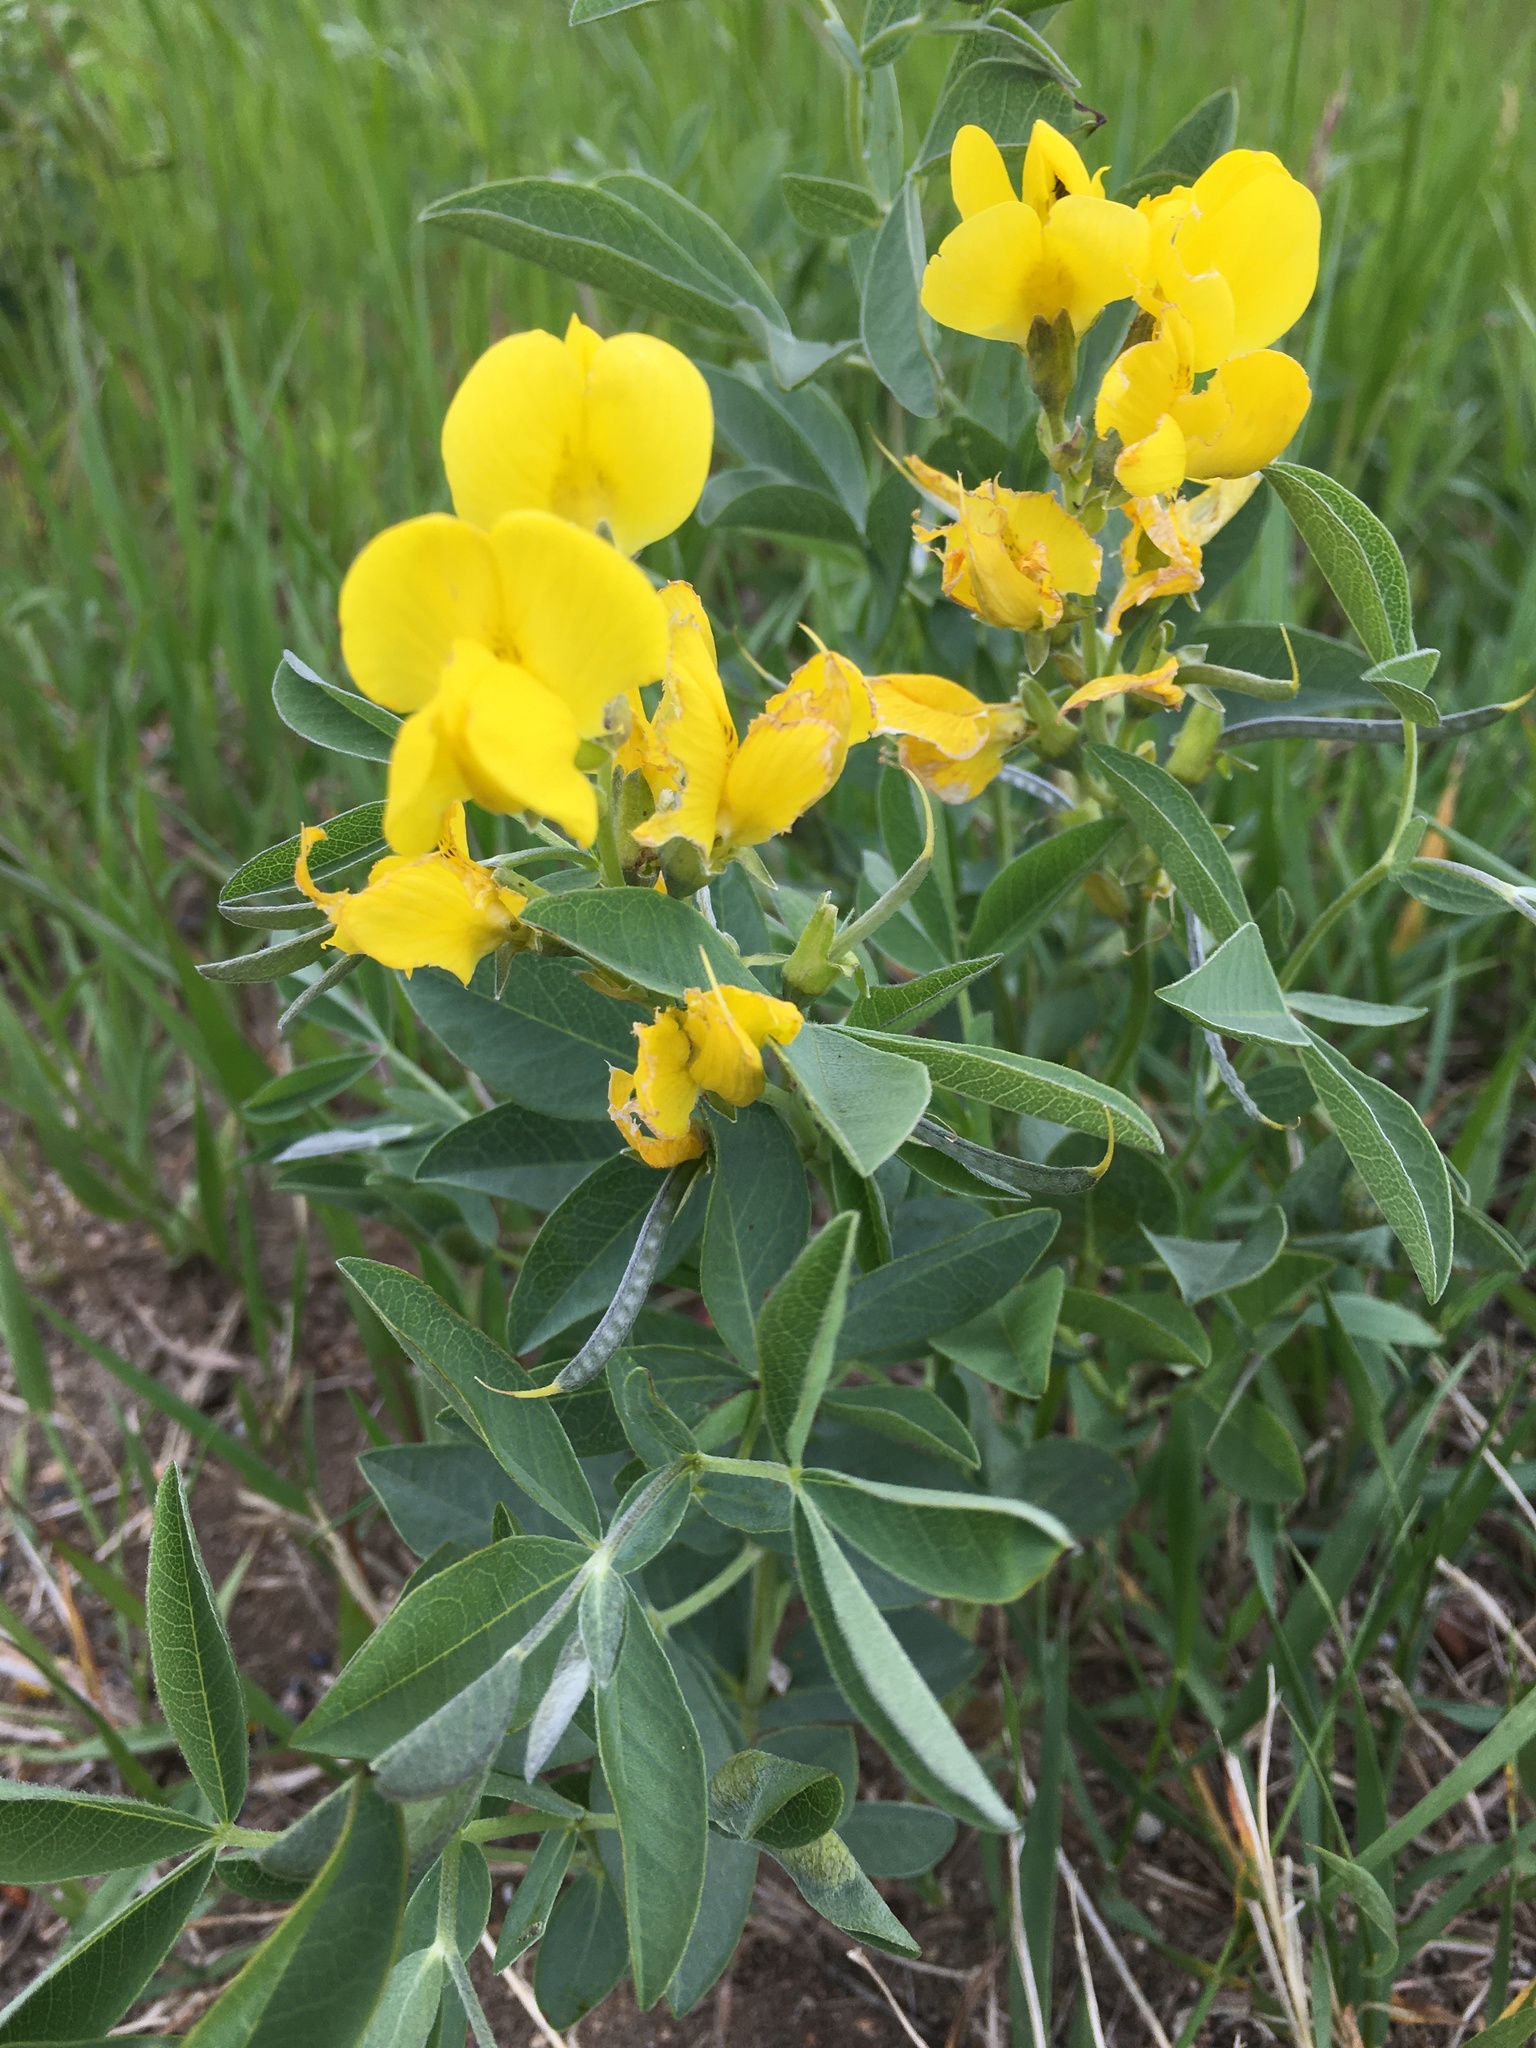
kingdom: Plantae
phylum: Tracheophyta
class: Magnoliopsida
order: Fabales
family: Fabaceae
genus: Thermopsis
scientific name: Thermopsis rhombifolia
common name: Circle-pod-pea
